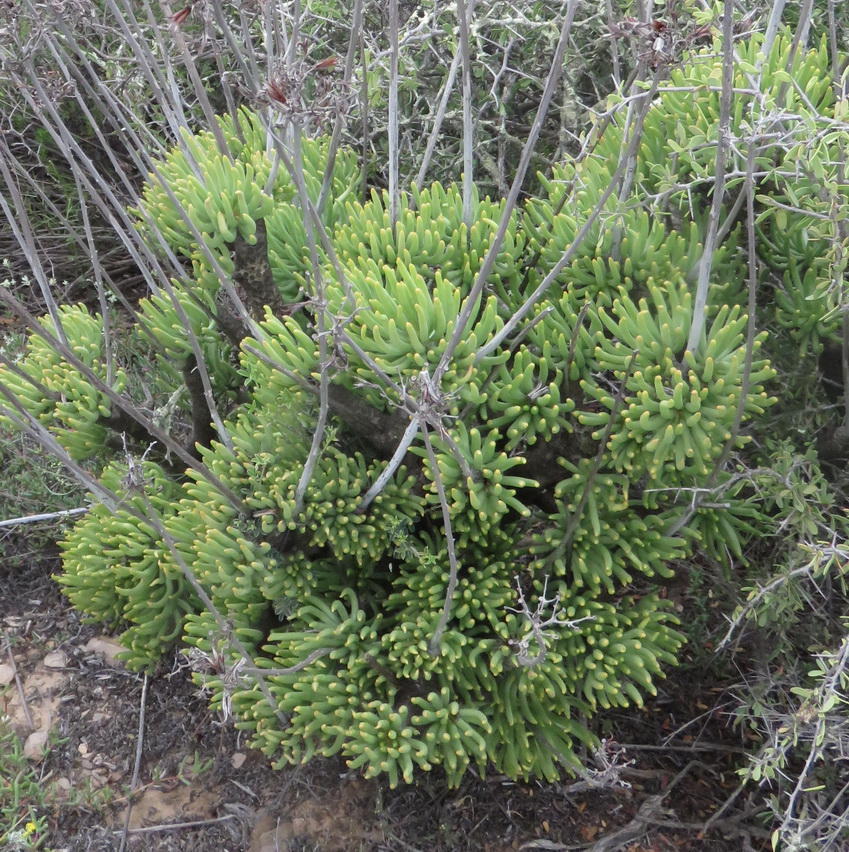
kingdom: Plantae
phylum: Tracheophyta
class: Magnoliopsida
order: Saxifragales
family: Crassulaceae
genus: Tylecodon
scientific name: Tylecodon cacaliodes
